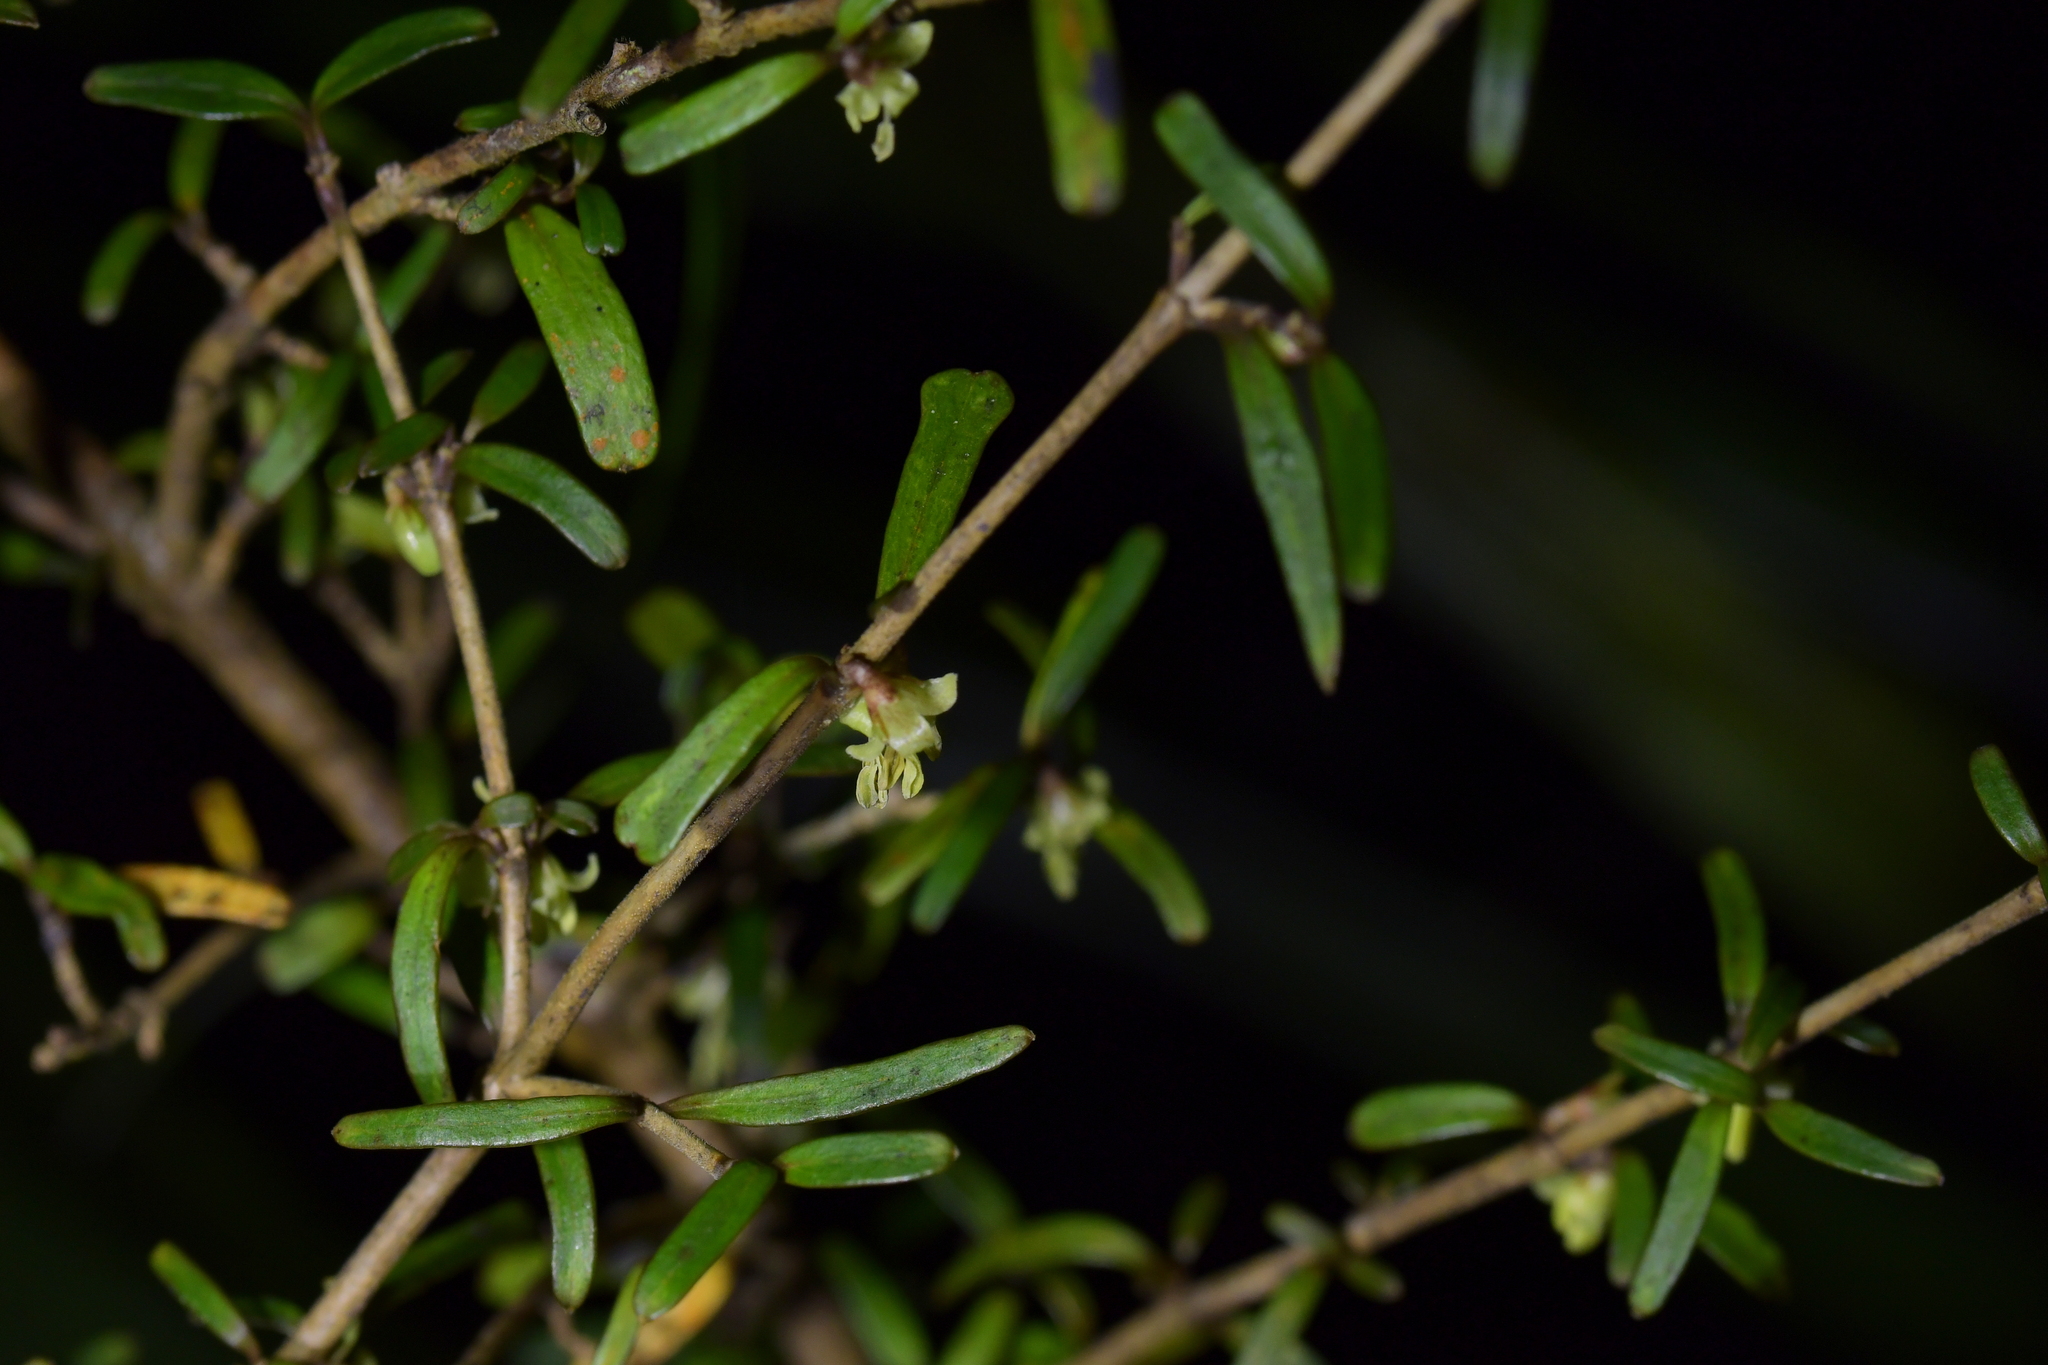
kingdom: Plantae
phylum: Tracheophyta
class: Magnoliopsida
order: Gentianales
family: Rubiaceae
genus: Coprosma
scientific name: Coprosma linariifolia
